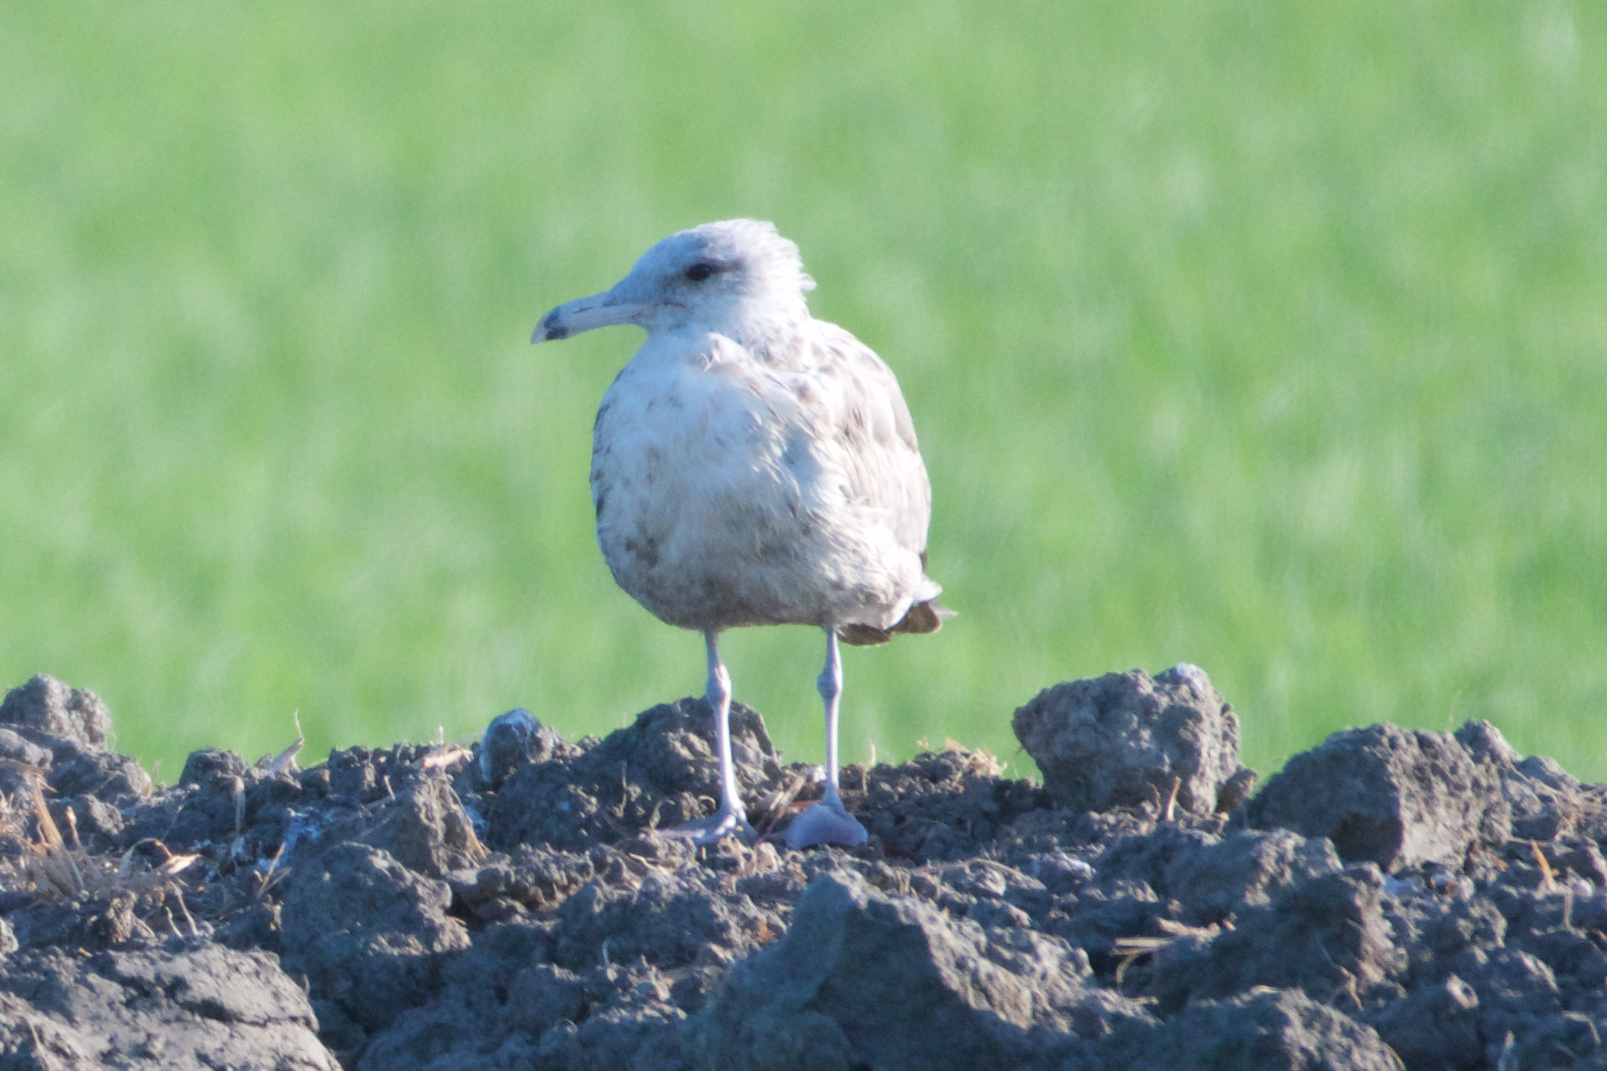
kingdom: Animalia
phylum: Chordata
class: Aves
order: Charadriiformes
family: Laridae
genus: Larus
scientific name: Larus californicus
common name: California gull
